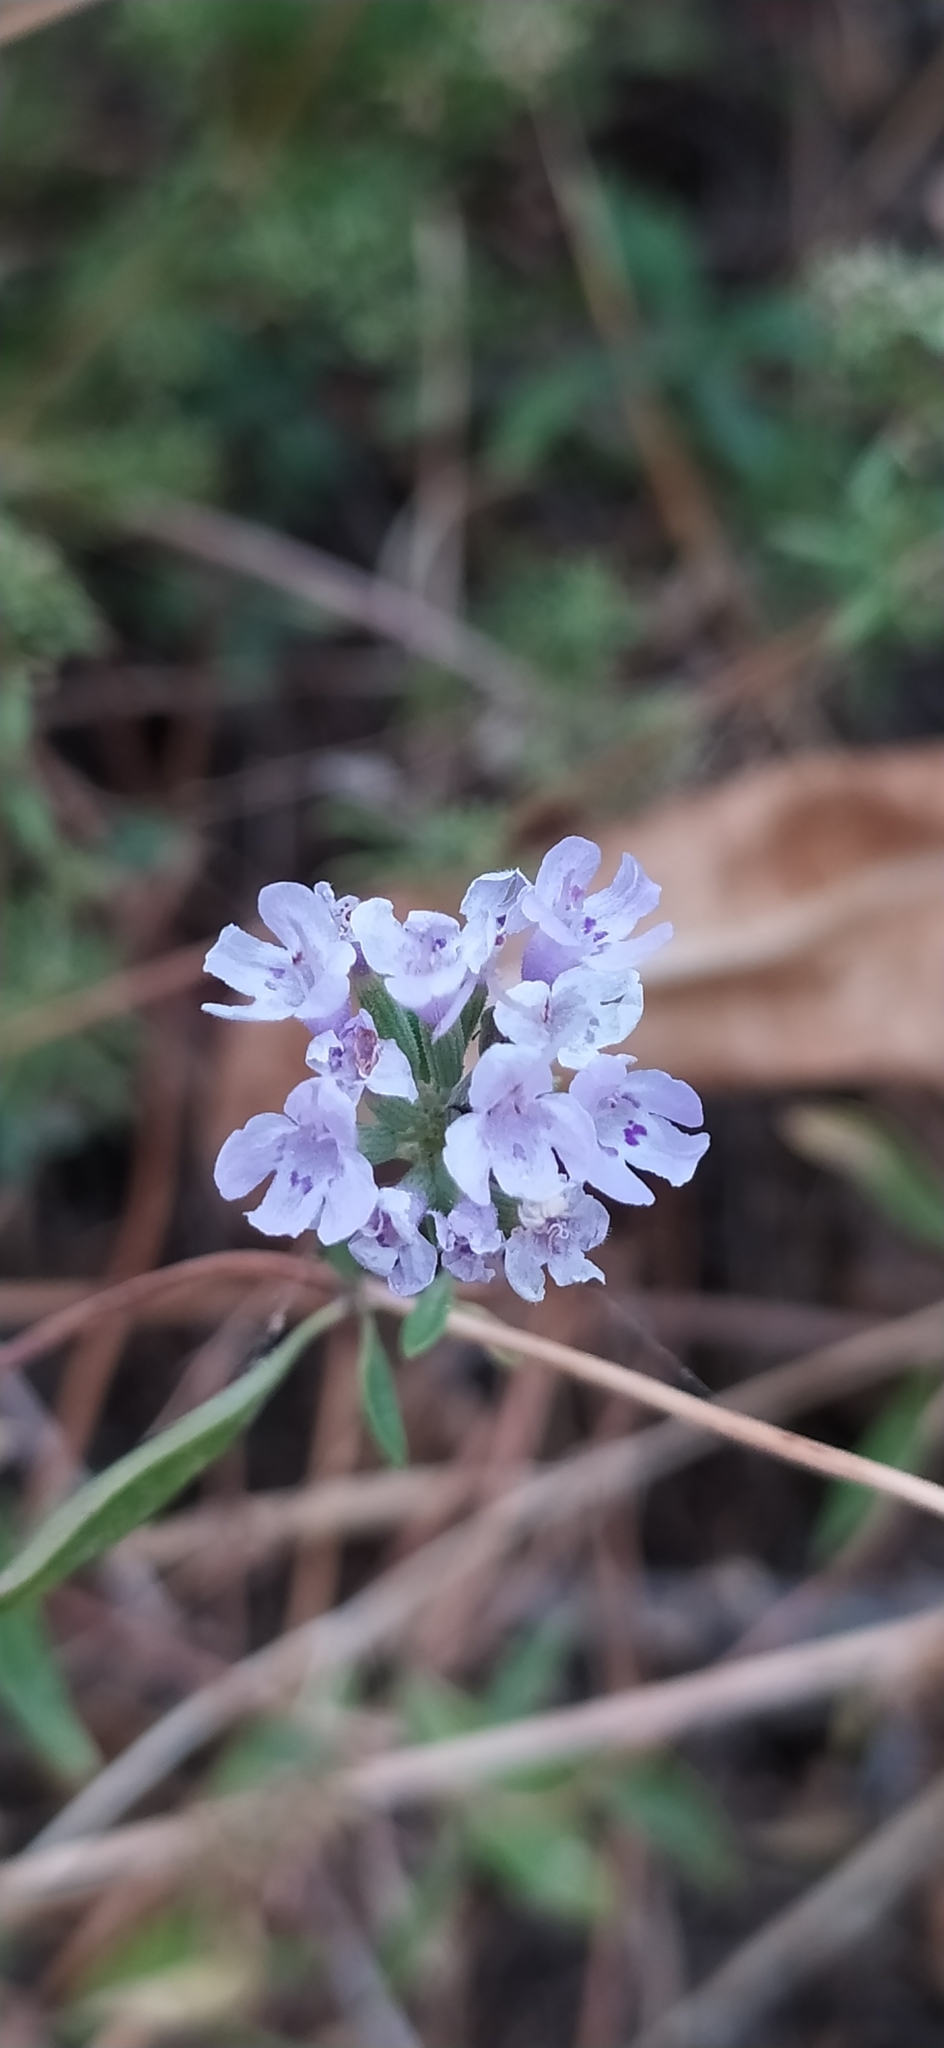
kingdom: Plantae
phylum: Tracheophyta
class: Magnoliopsida
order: Lamiales
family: Lamiaceae
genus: Ziziphora
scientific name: Ziziphora pedicellata
